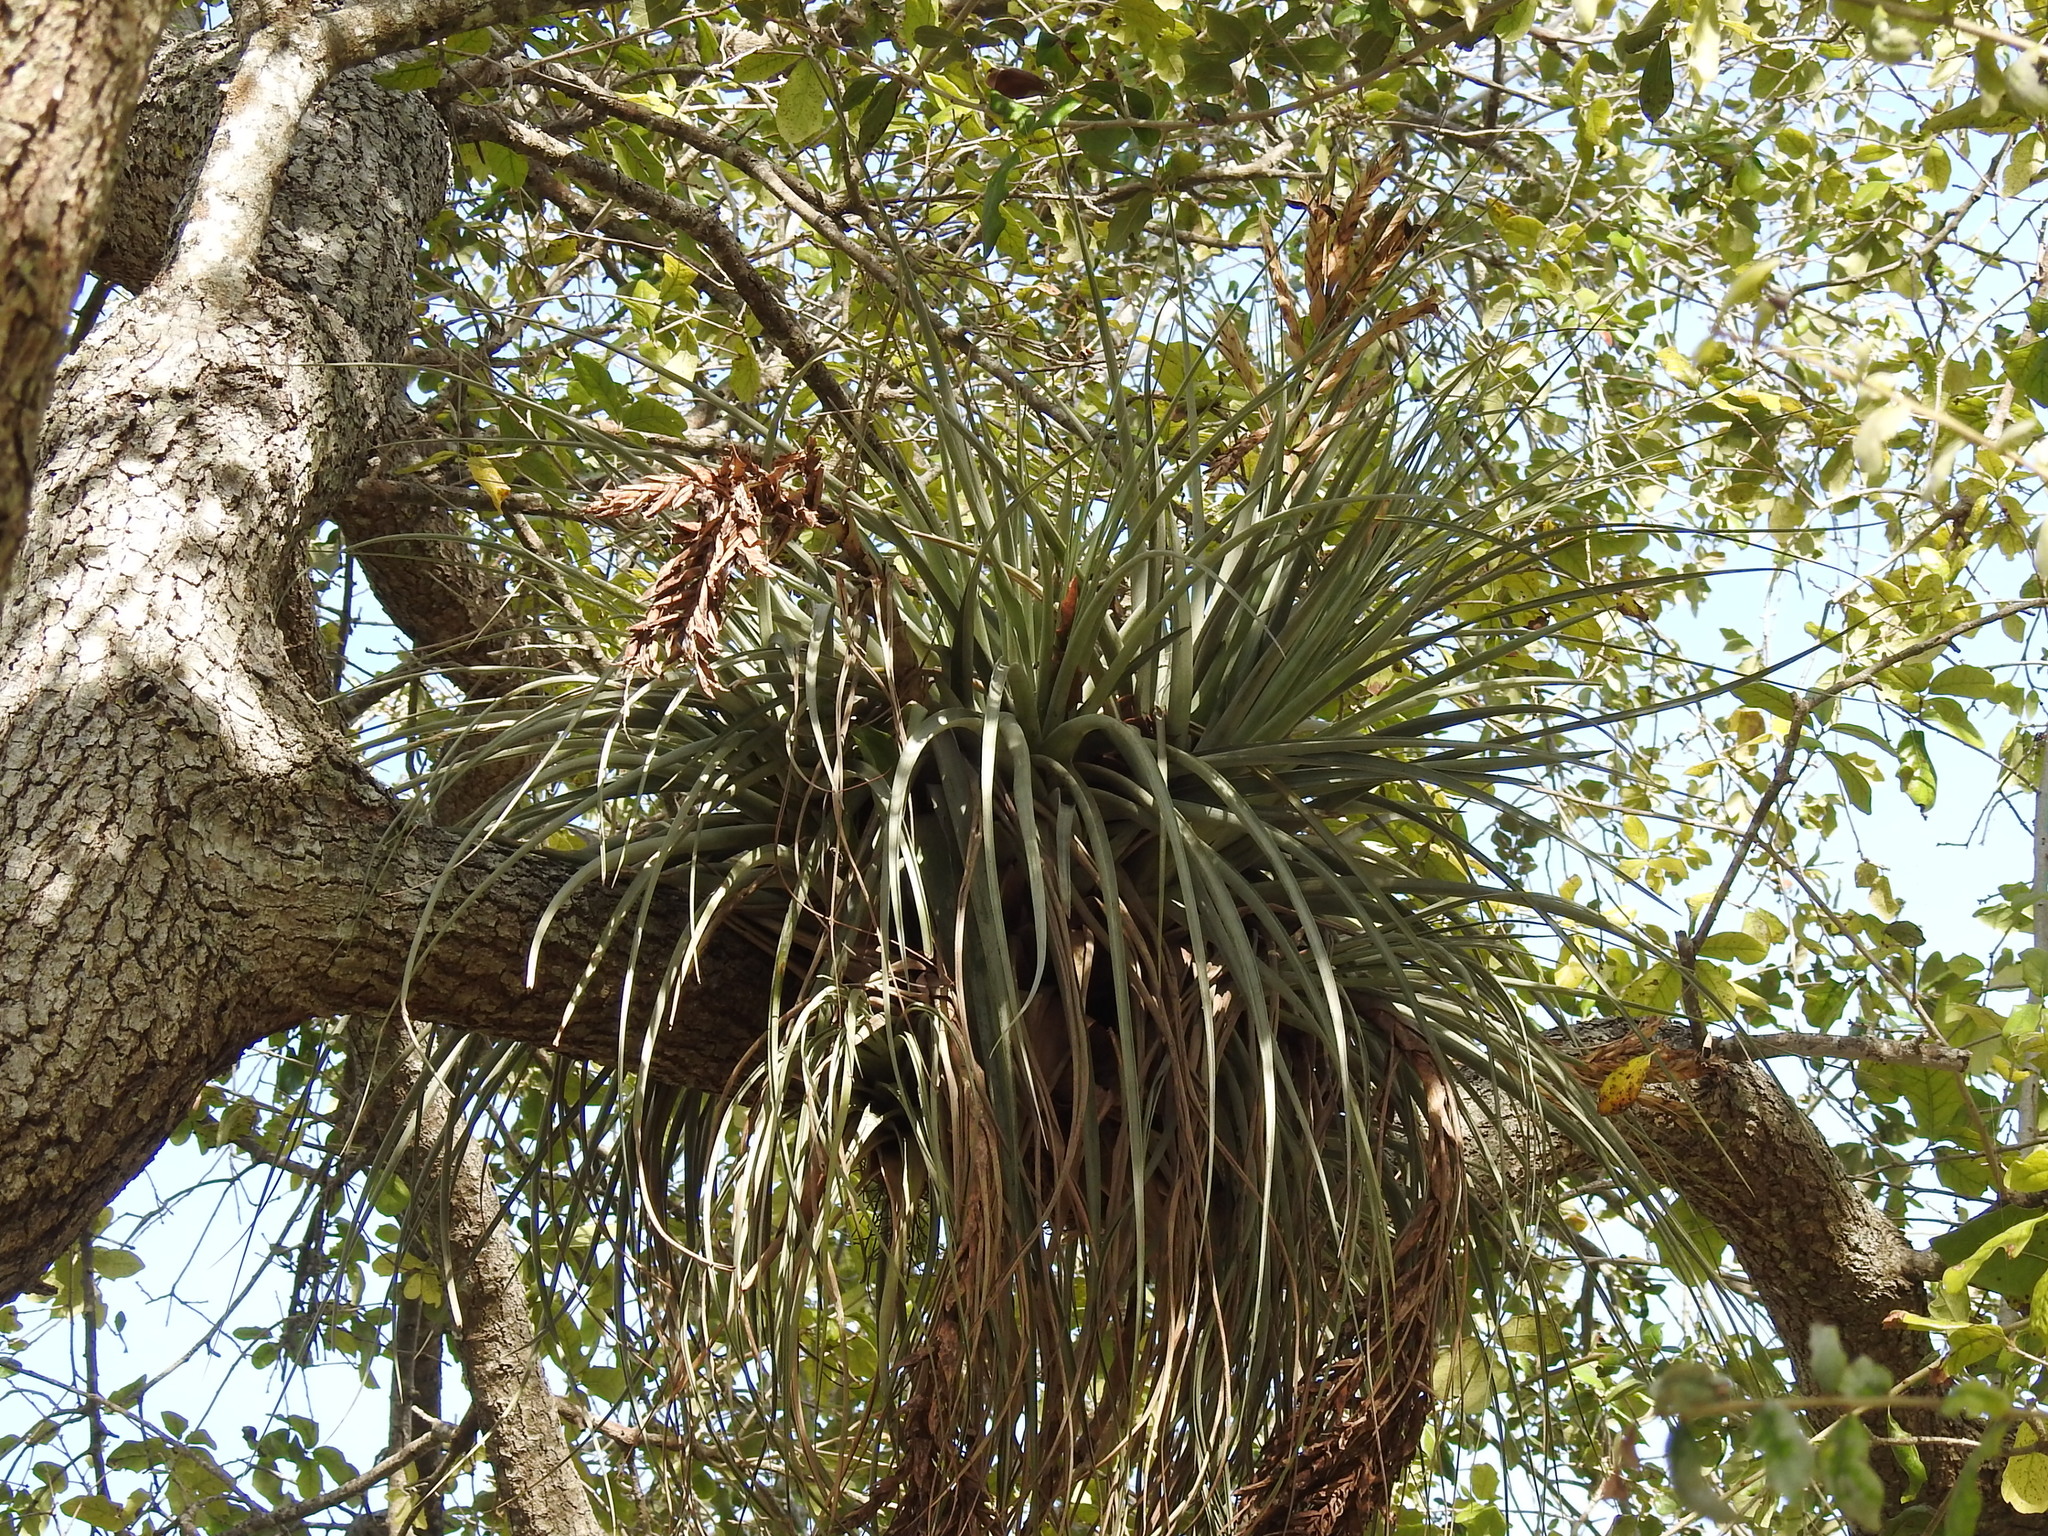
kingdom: Plantae
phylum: Tracheophyta
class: Liliopsida
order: Poales
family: Bromeliaceae
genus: Tillandsia
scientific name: Tillandsia fasciculata
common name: Giant airplant
